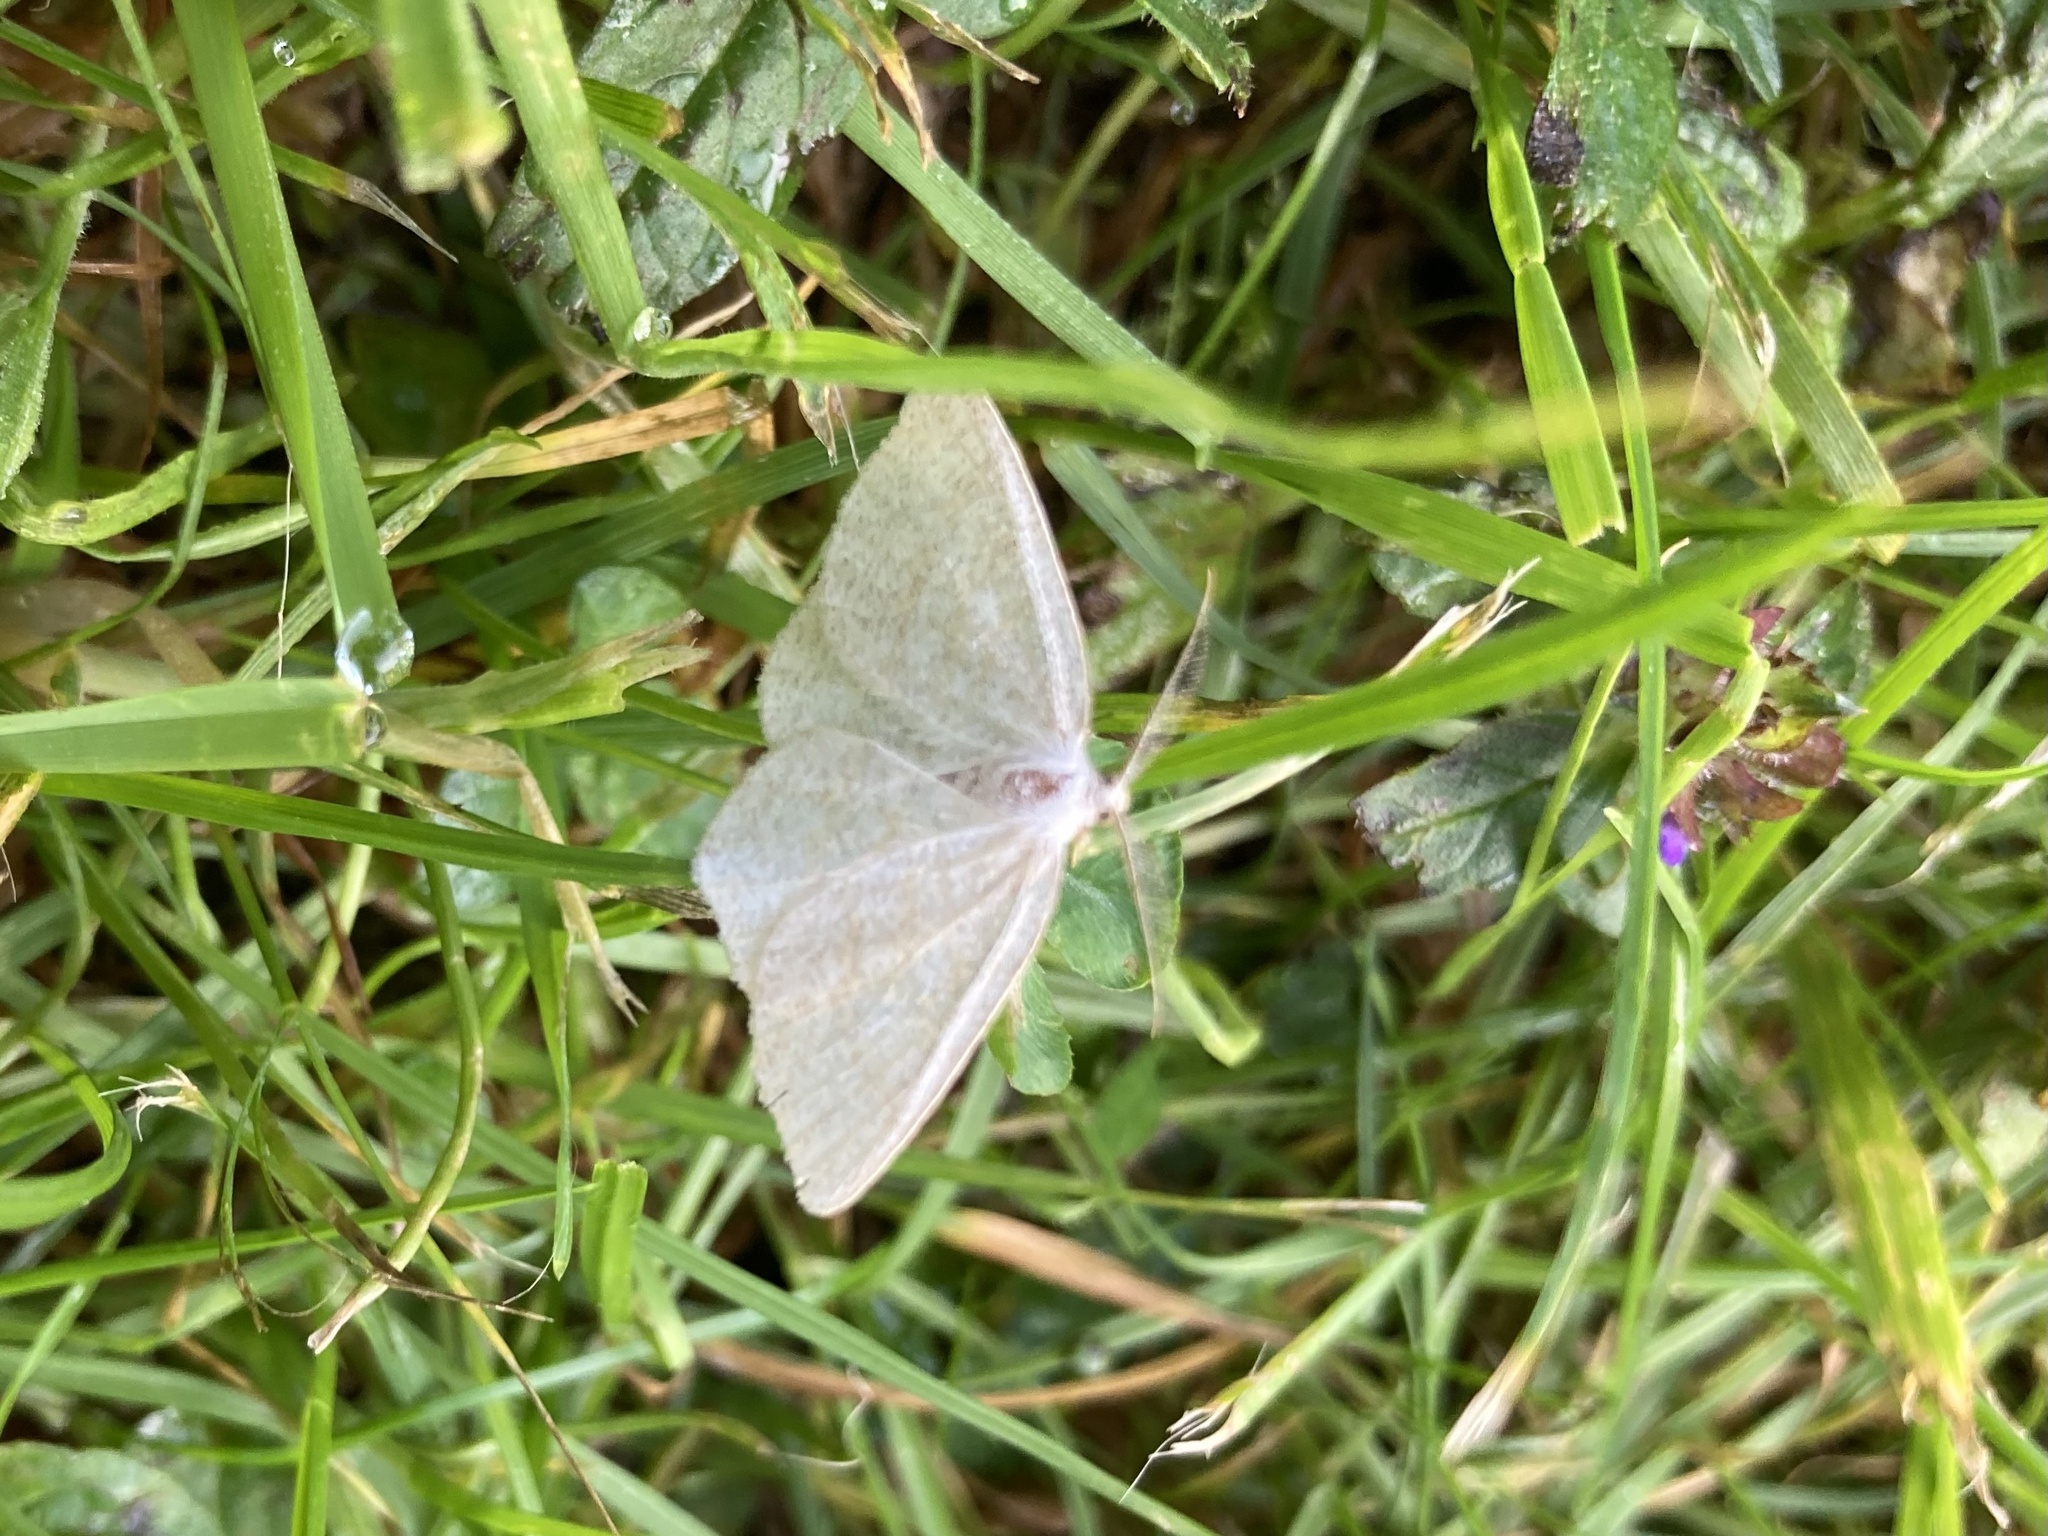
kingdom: Animalia
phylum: Arthropoda
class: Insecta
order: Lepidoptera
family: Geometridae
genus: Cabera
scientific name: Cabera pusaria
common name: Common white wave
